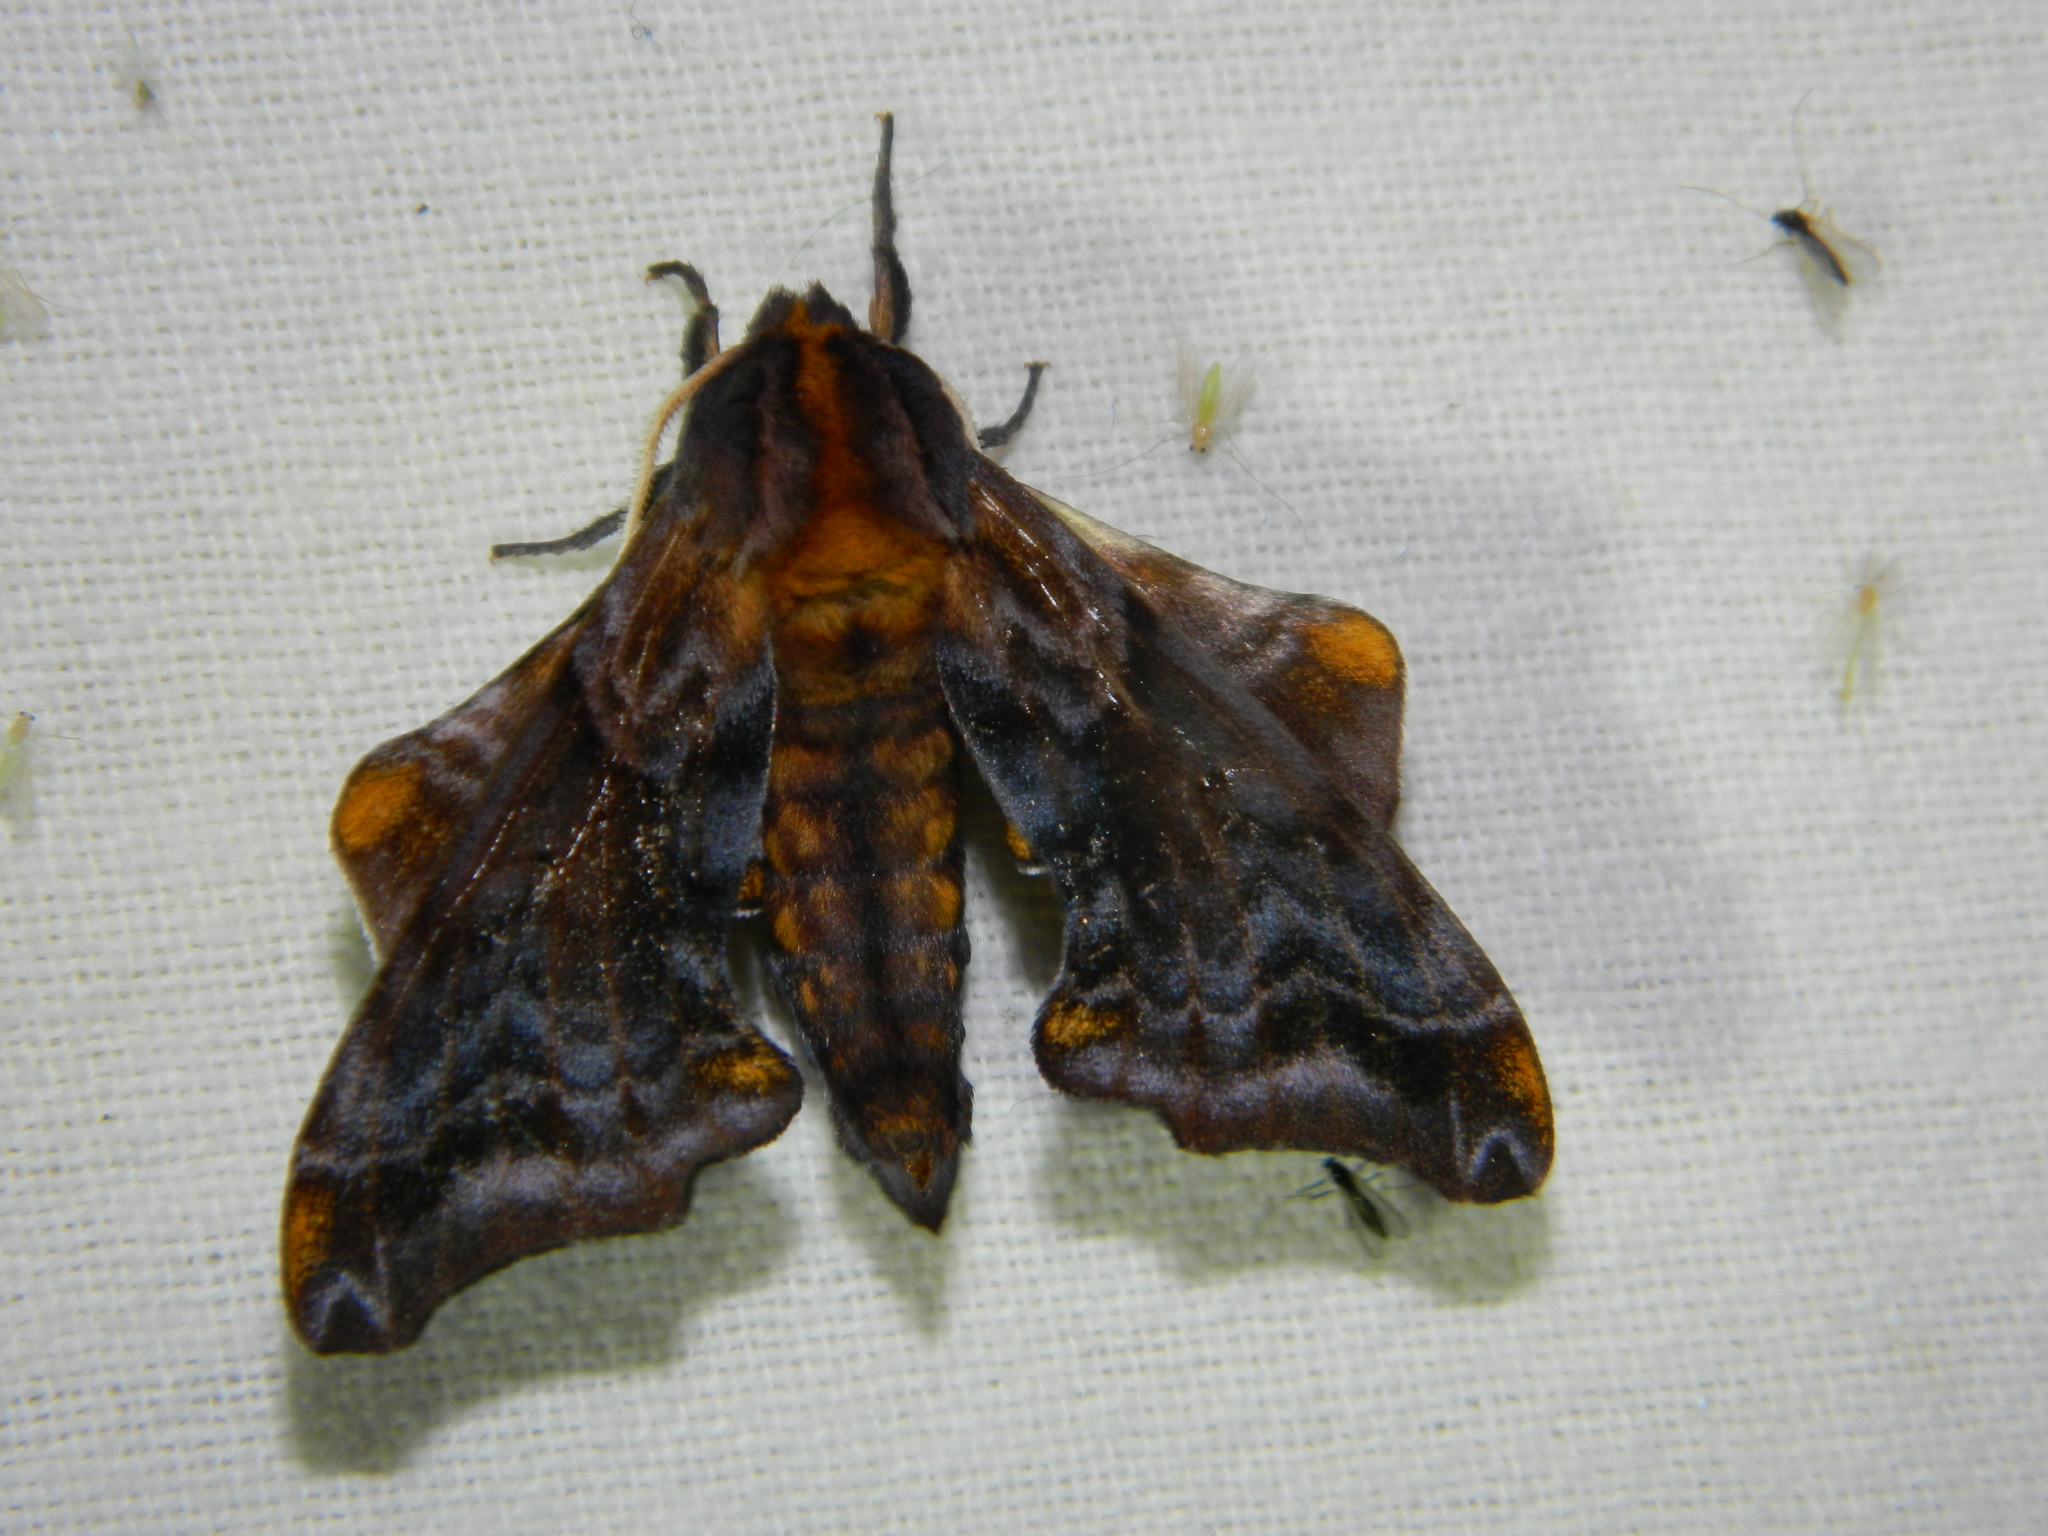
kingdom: Animalia
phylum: Arthropoda
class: Insecta
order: Lepidoptera
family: Sphingidae
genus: Paonias
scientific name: Paonias myops
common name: Small-eyed sphinx
